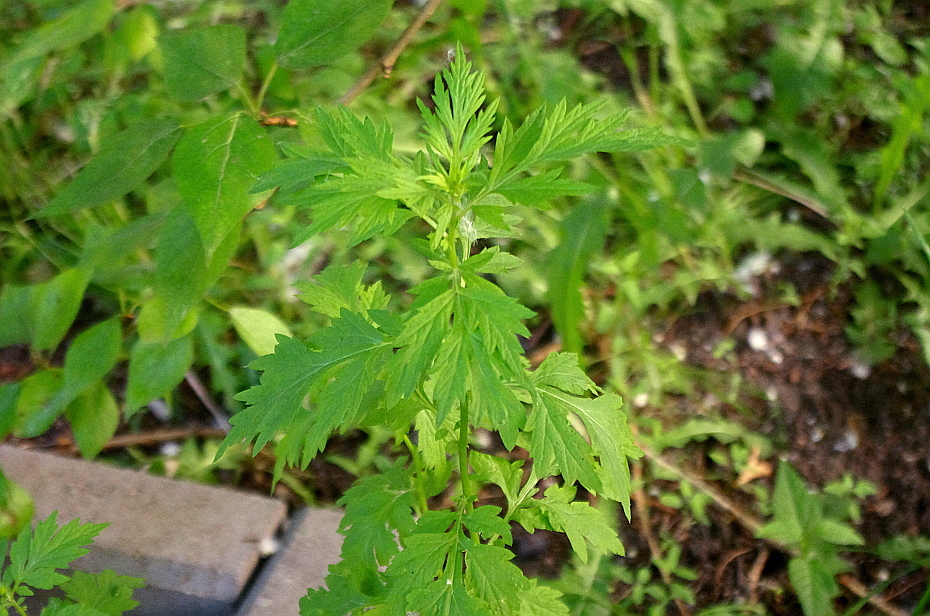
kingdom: Plantae
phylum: Tracheophyta
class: Magnoliopsida
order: Asterales
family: Asteraceae
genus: Artemisia
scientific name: Artemisia vulgaris
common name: Mugwort
